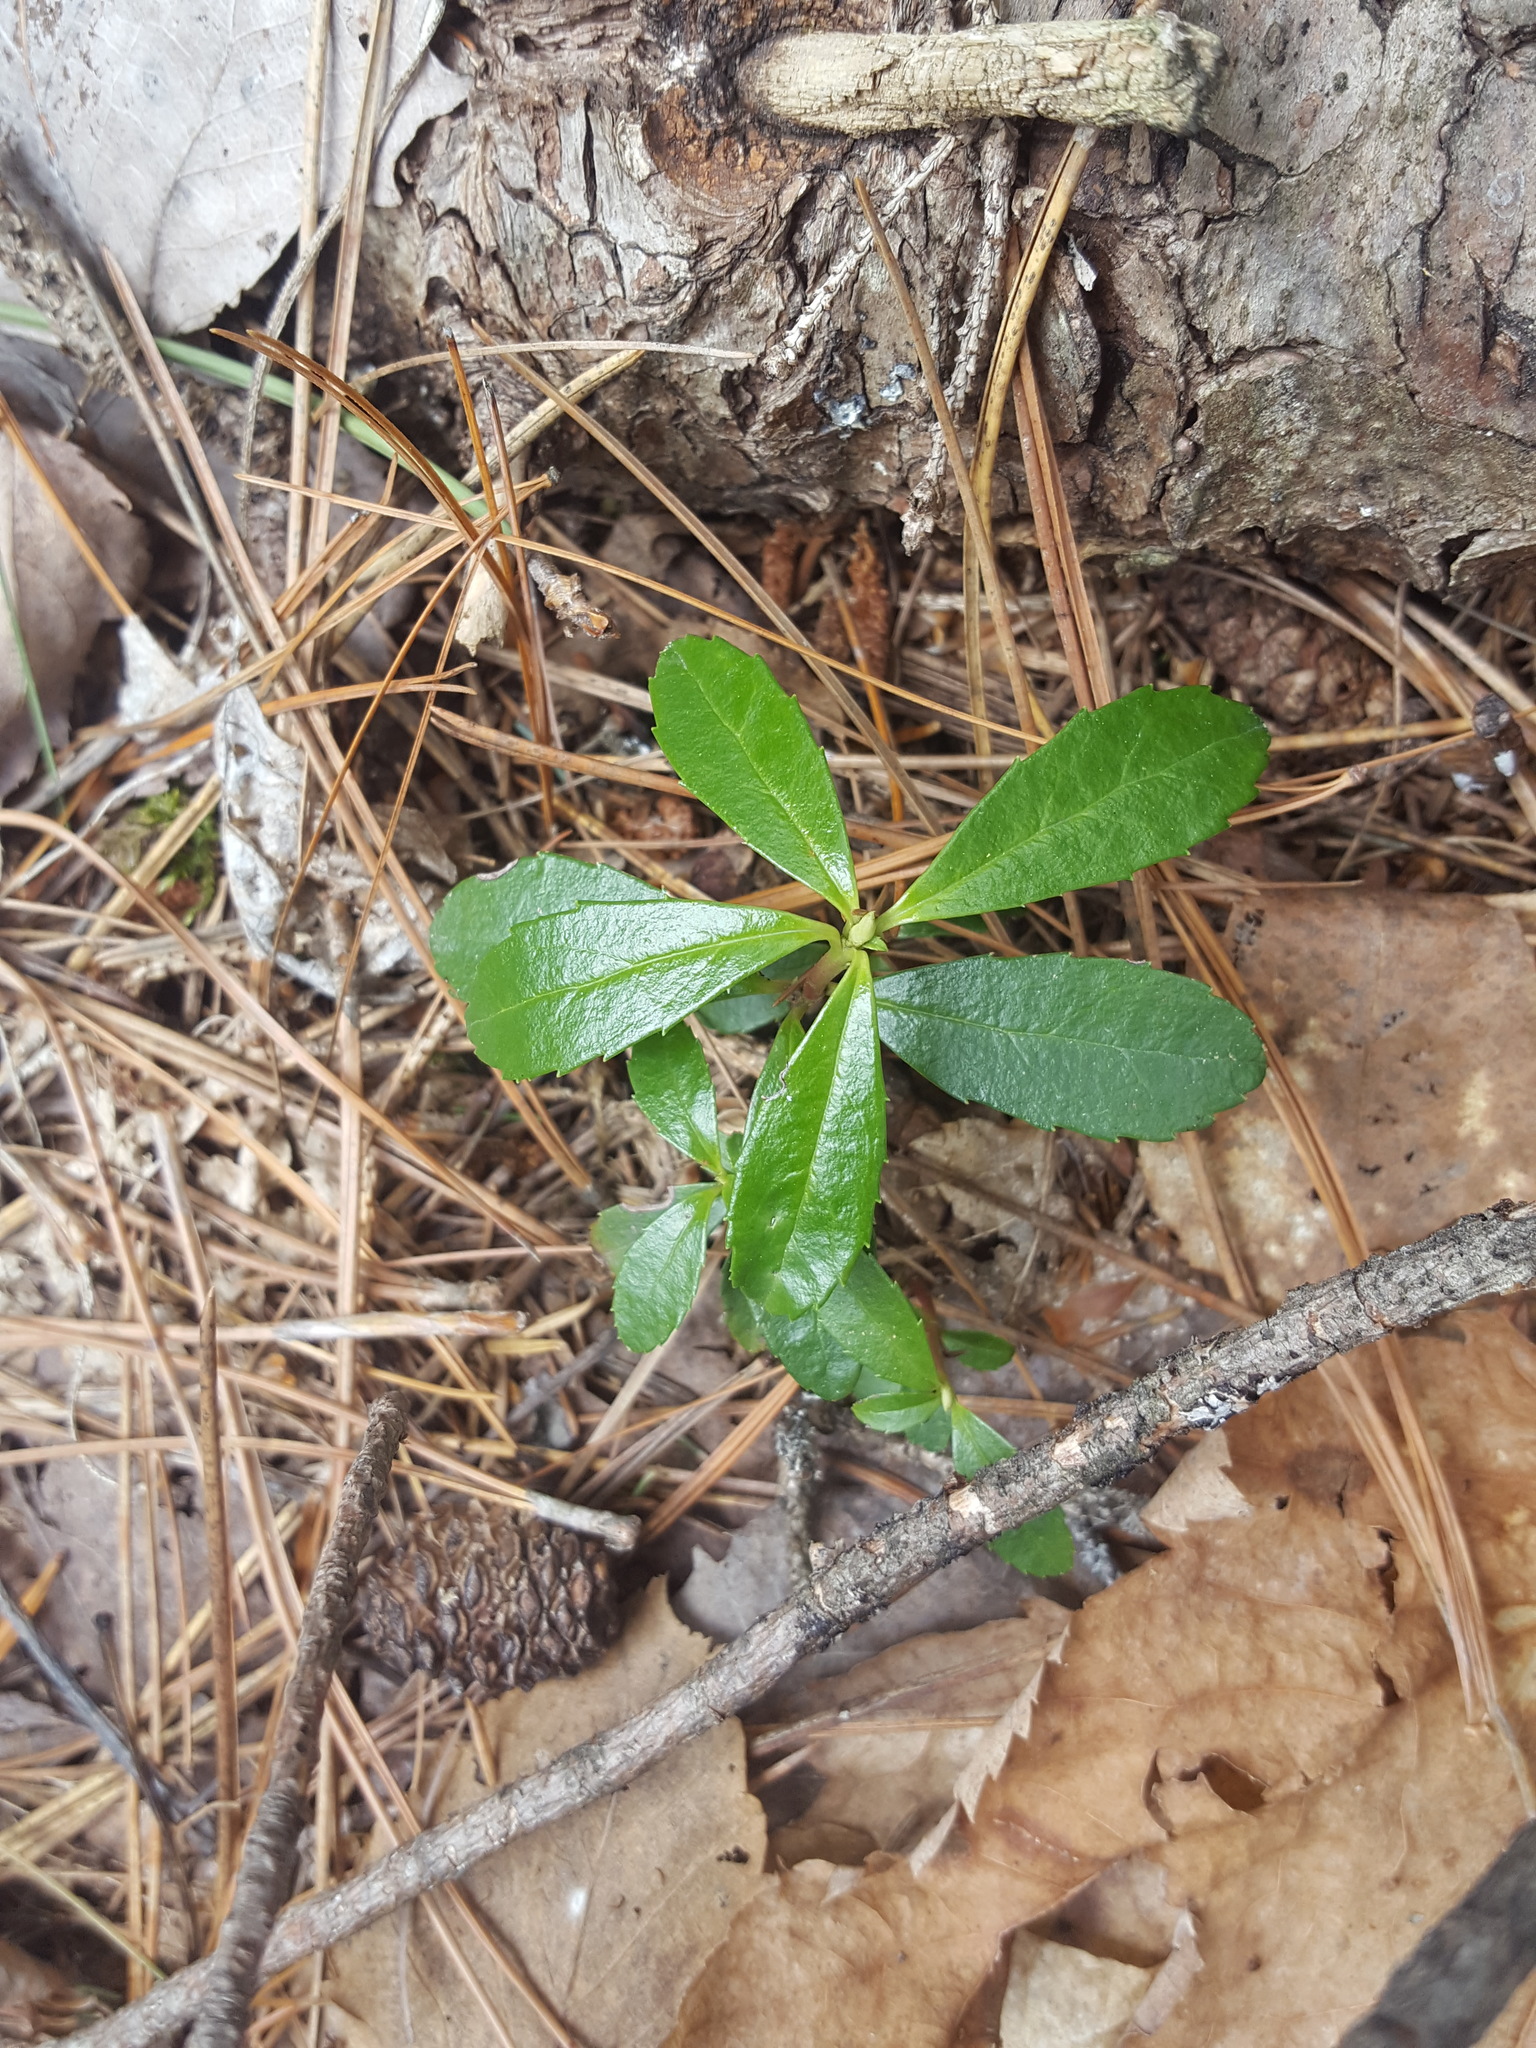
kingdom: Plantae
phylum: Tracheophyta
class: Magnoliopsida
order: Ericales
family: Ericaceae
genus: Chimaphila
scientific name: Chimaphila umbellata
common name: Pipsissewa
